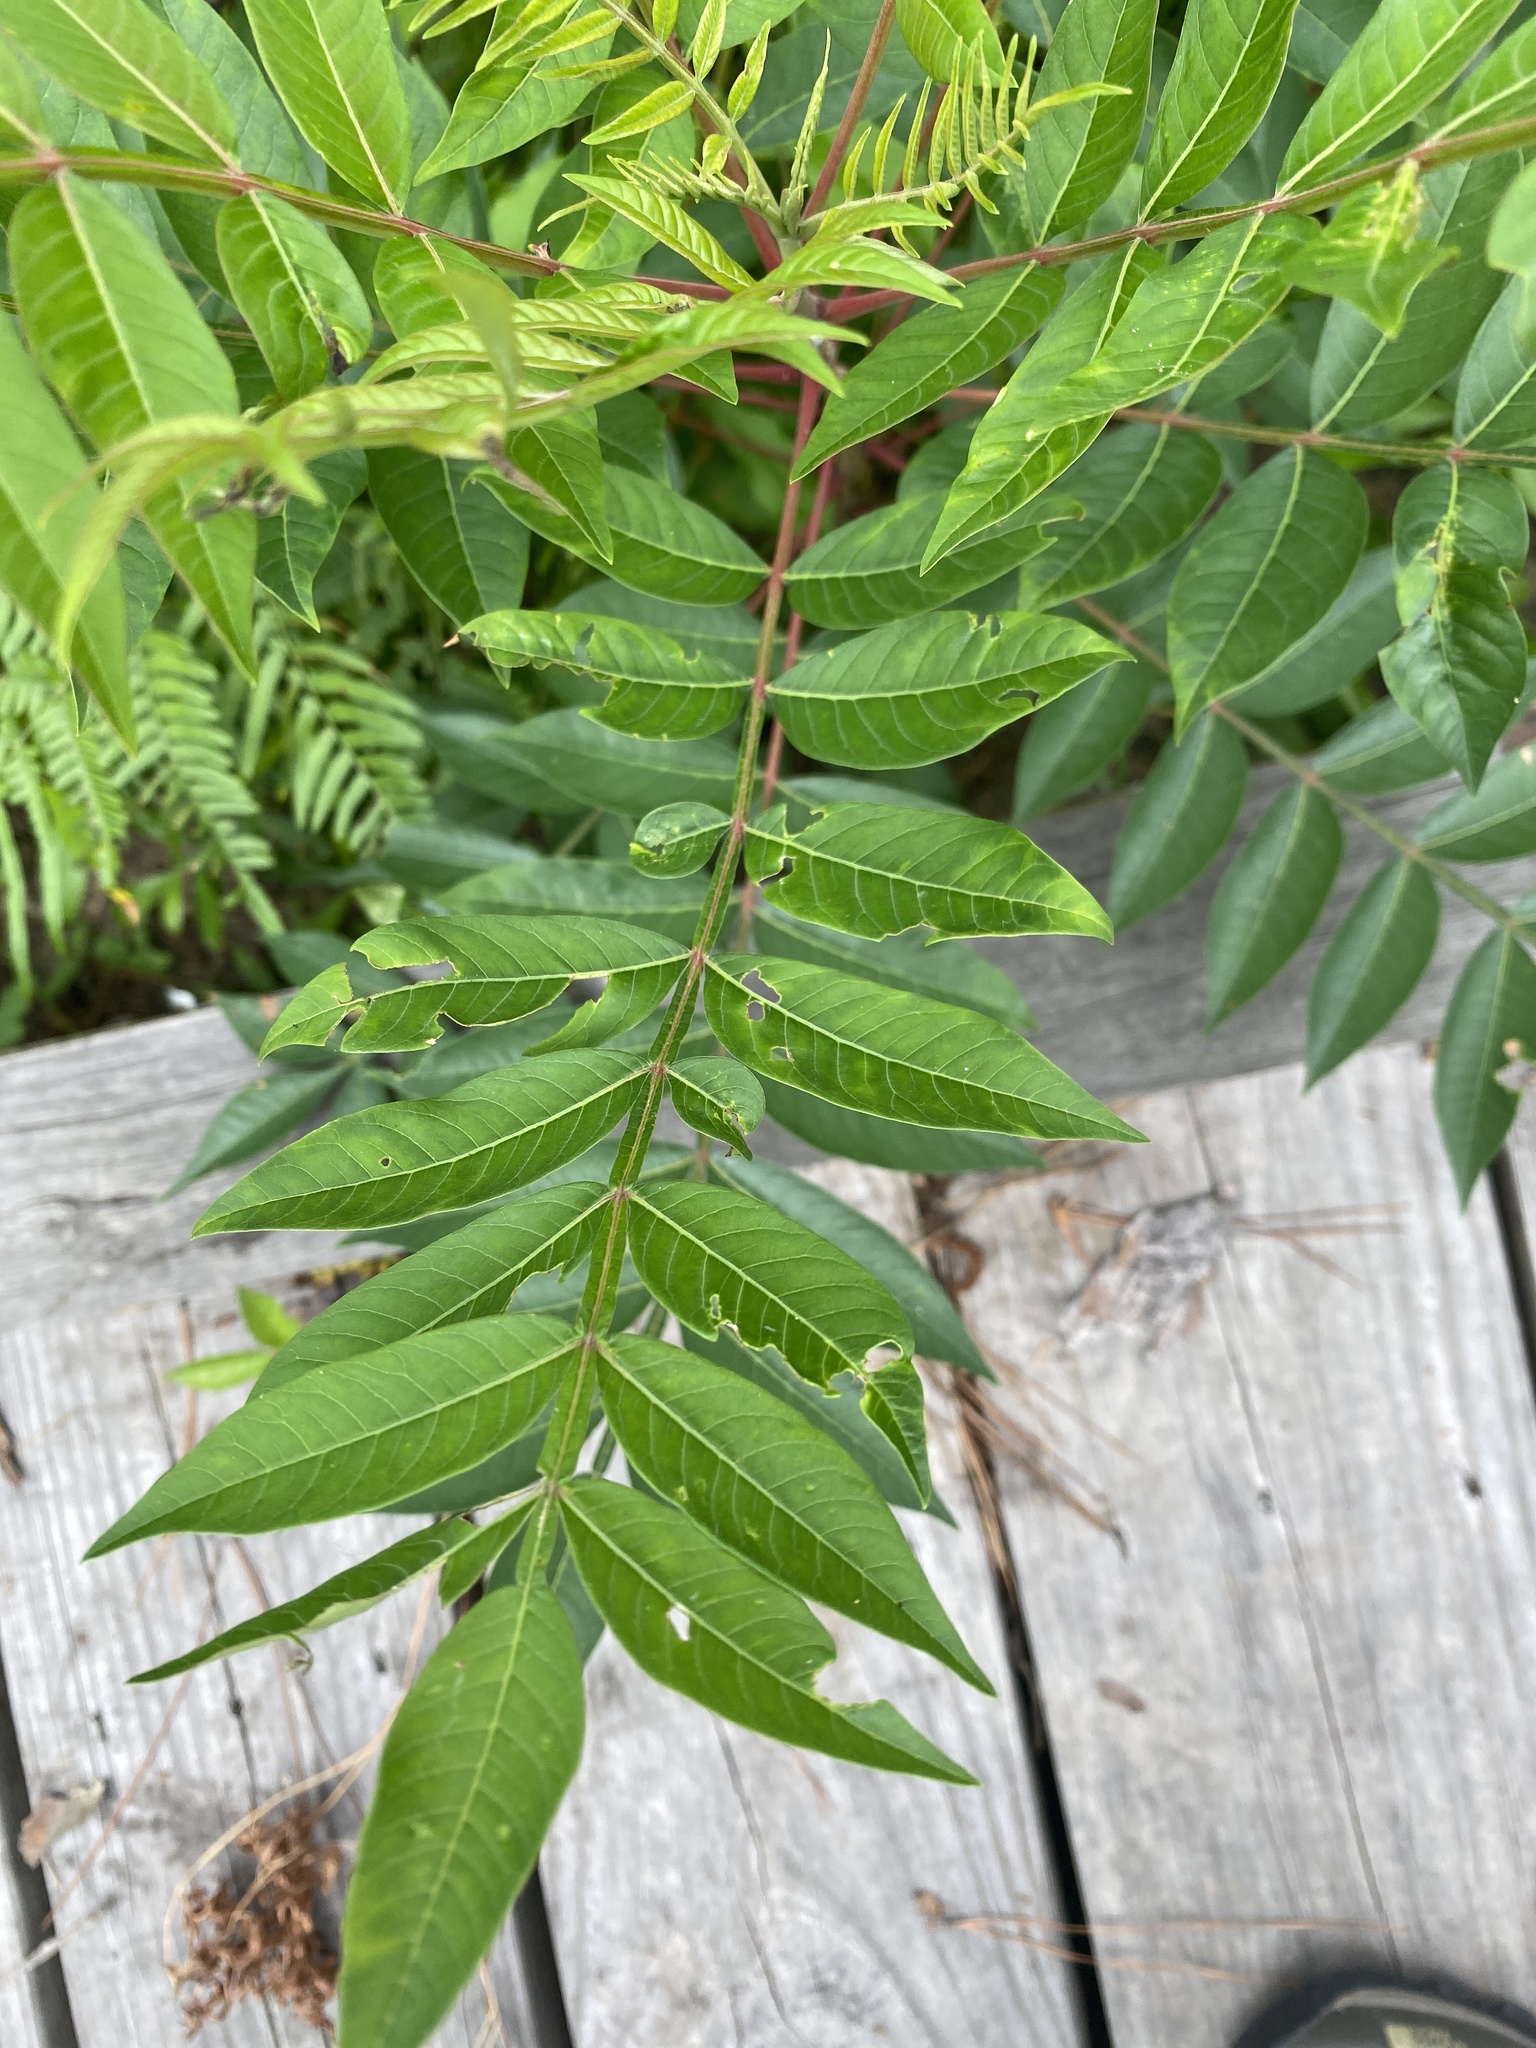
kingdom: Plantae
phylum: Tracheophyta
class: Magnoliopsida
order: Sapindales
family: Anacardiaceae
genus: Rhus
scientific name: Rhus copallina
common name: Shining sumac
